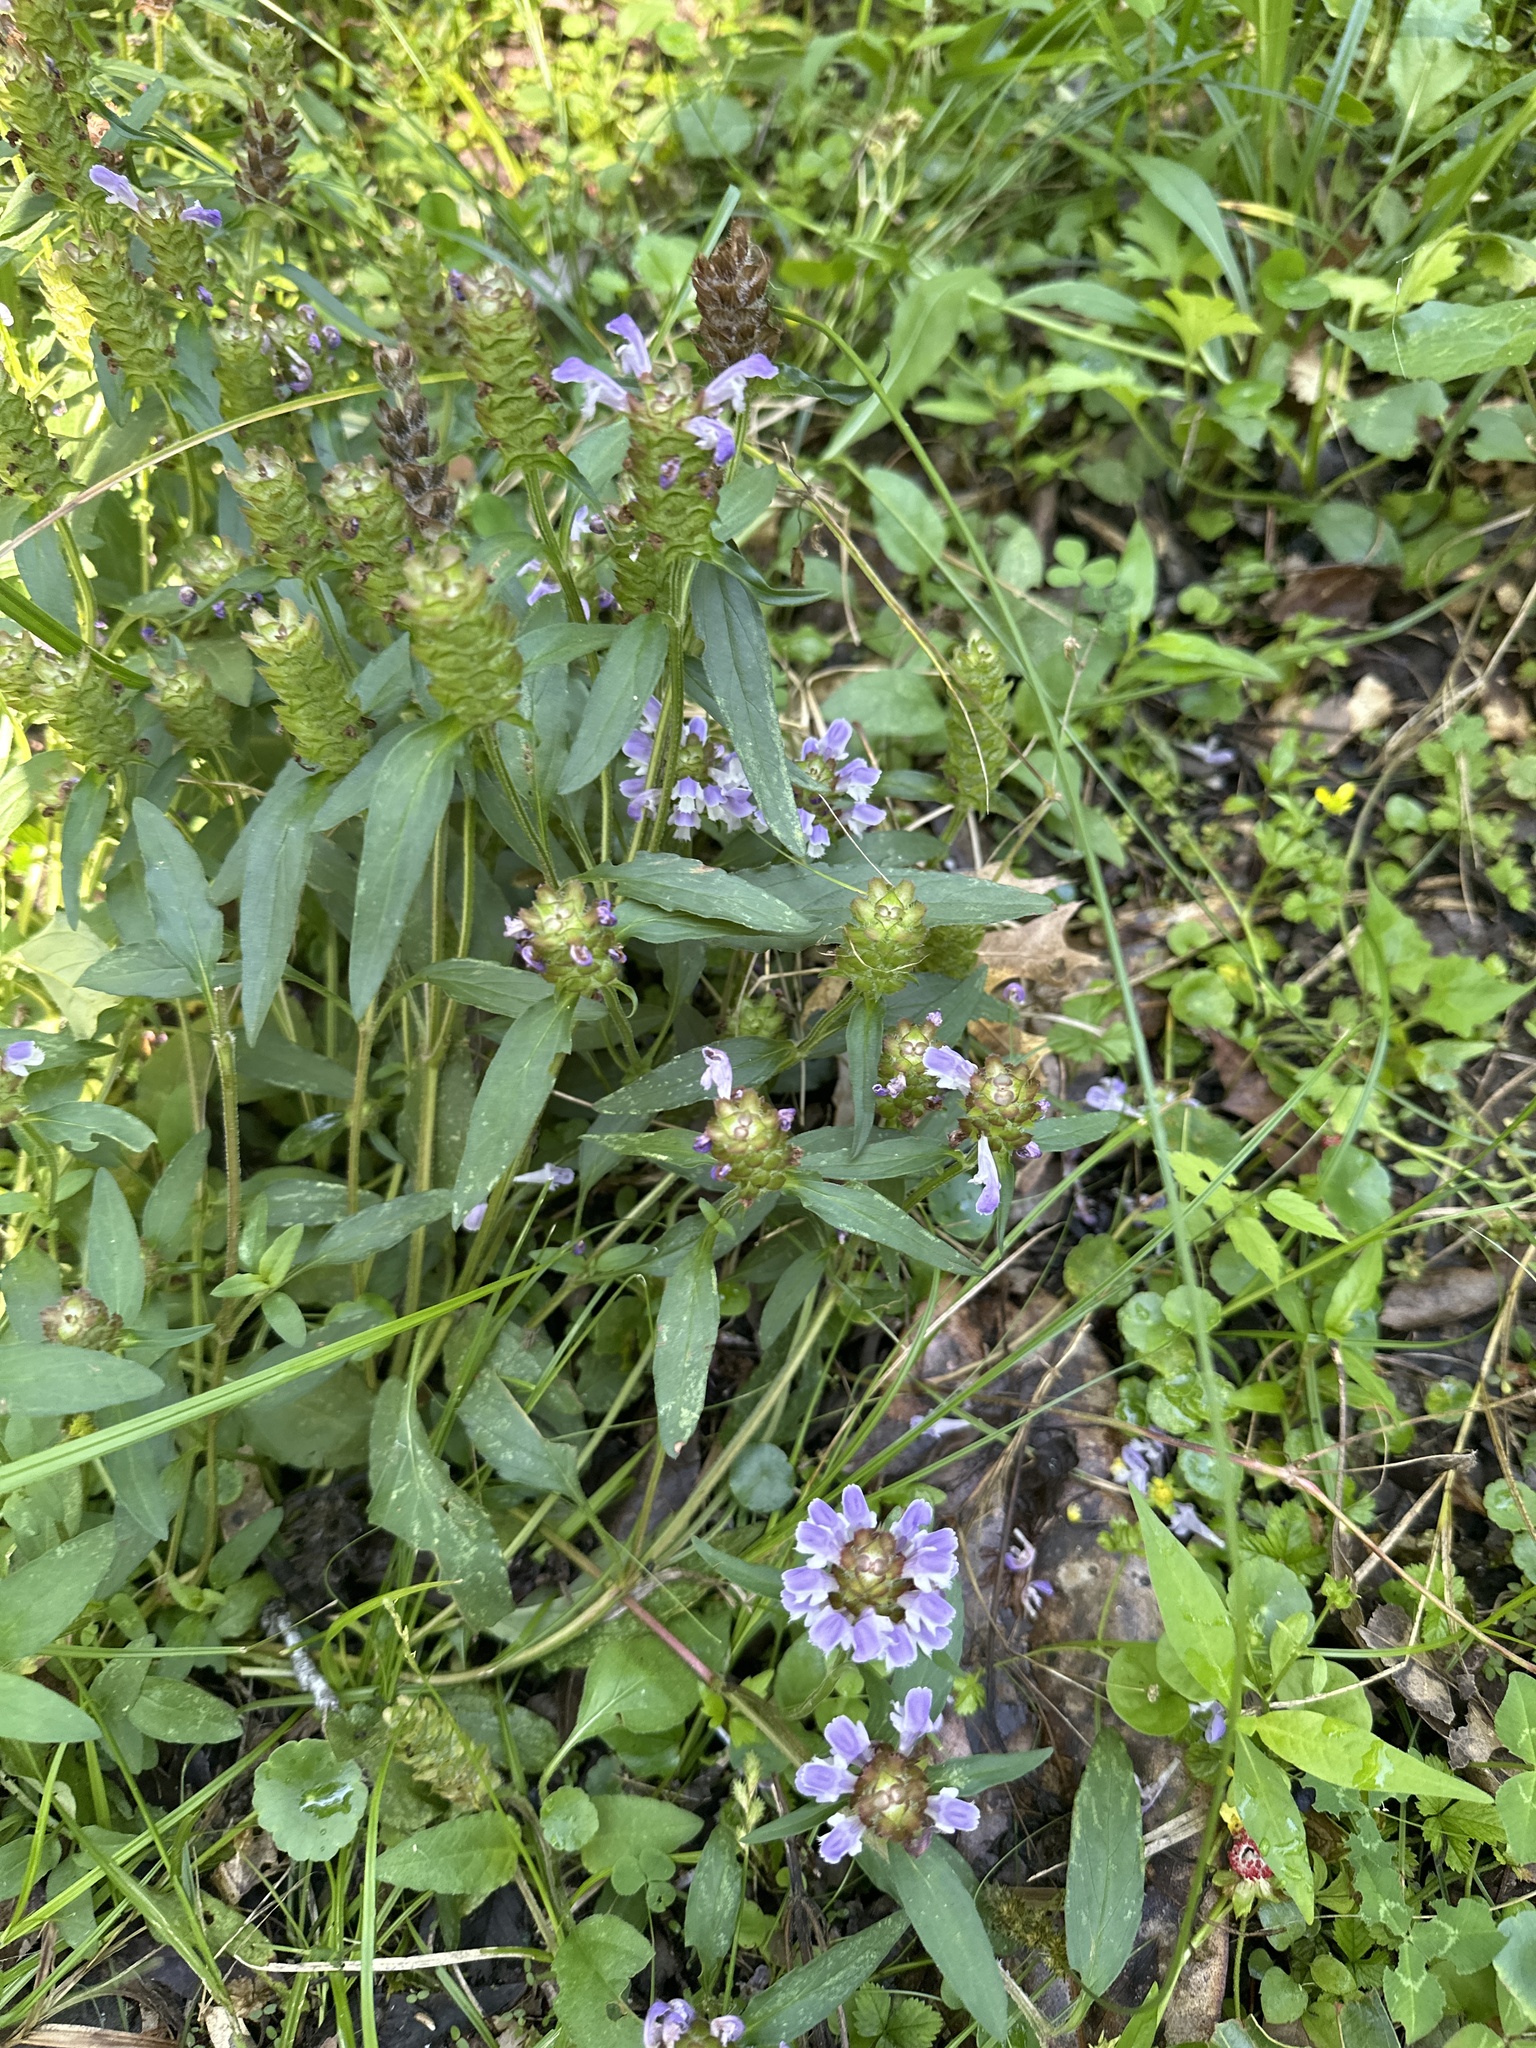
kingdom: Plantae
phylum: Tracheophyta
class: Magnoliopsida
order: Lamiales
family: Lamiaceae
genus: Prunella
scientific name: Prunella vulgaris
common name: Heal-all
